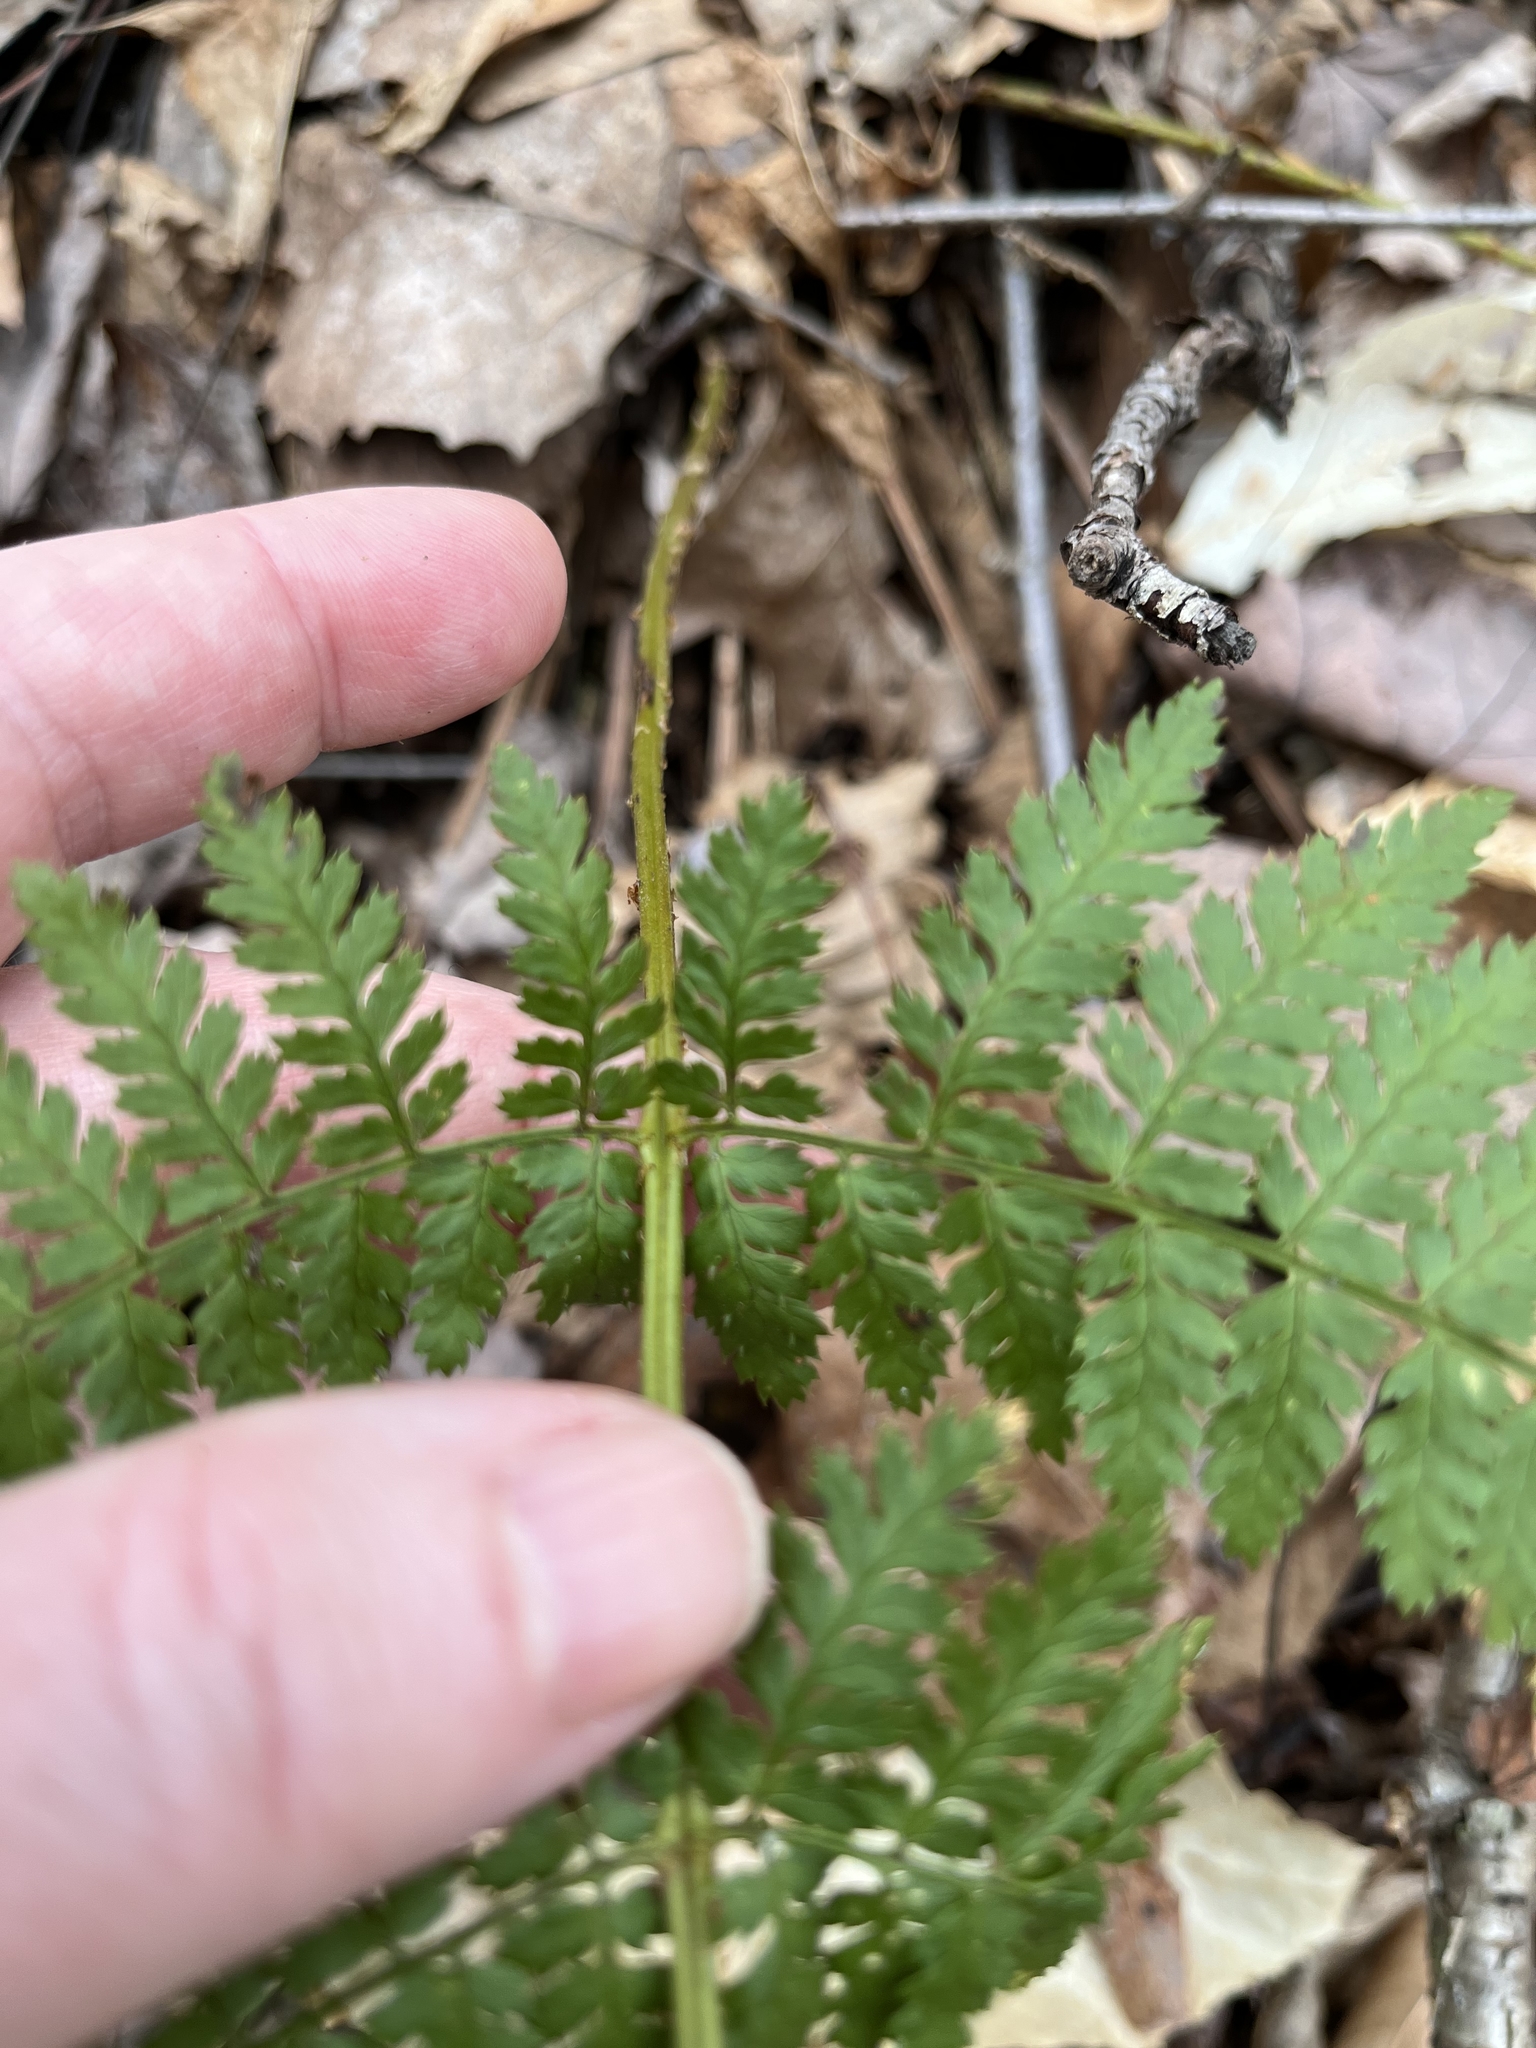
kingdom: Plantae
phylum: Tracheophyta
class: Polypodiopsida
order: Polypodiales
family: Dryopteridaceae
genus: Dryopteris
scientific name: Dryopteris intermedia
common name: Evergreen wood fern
